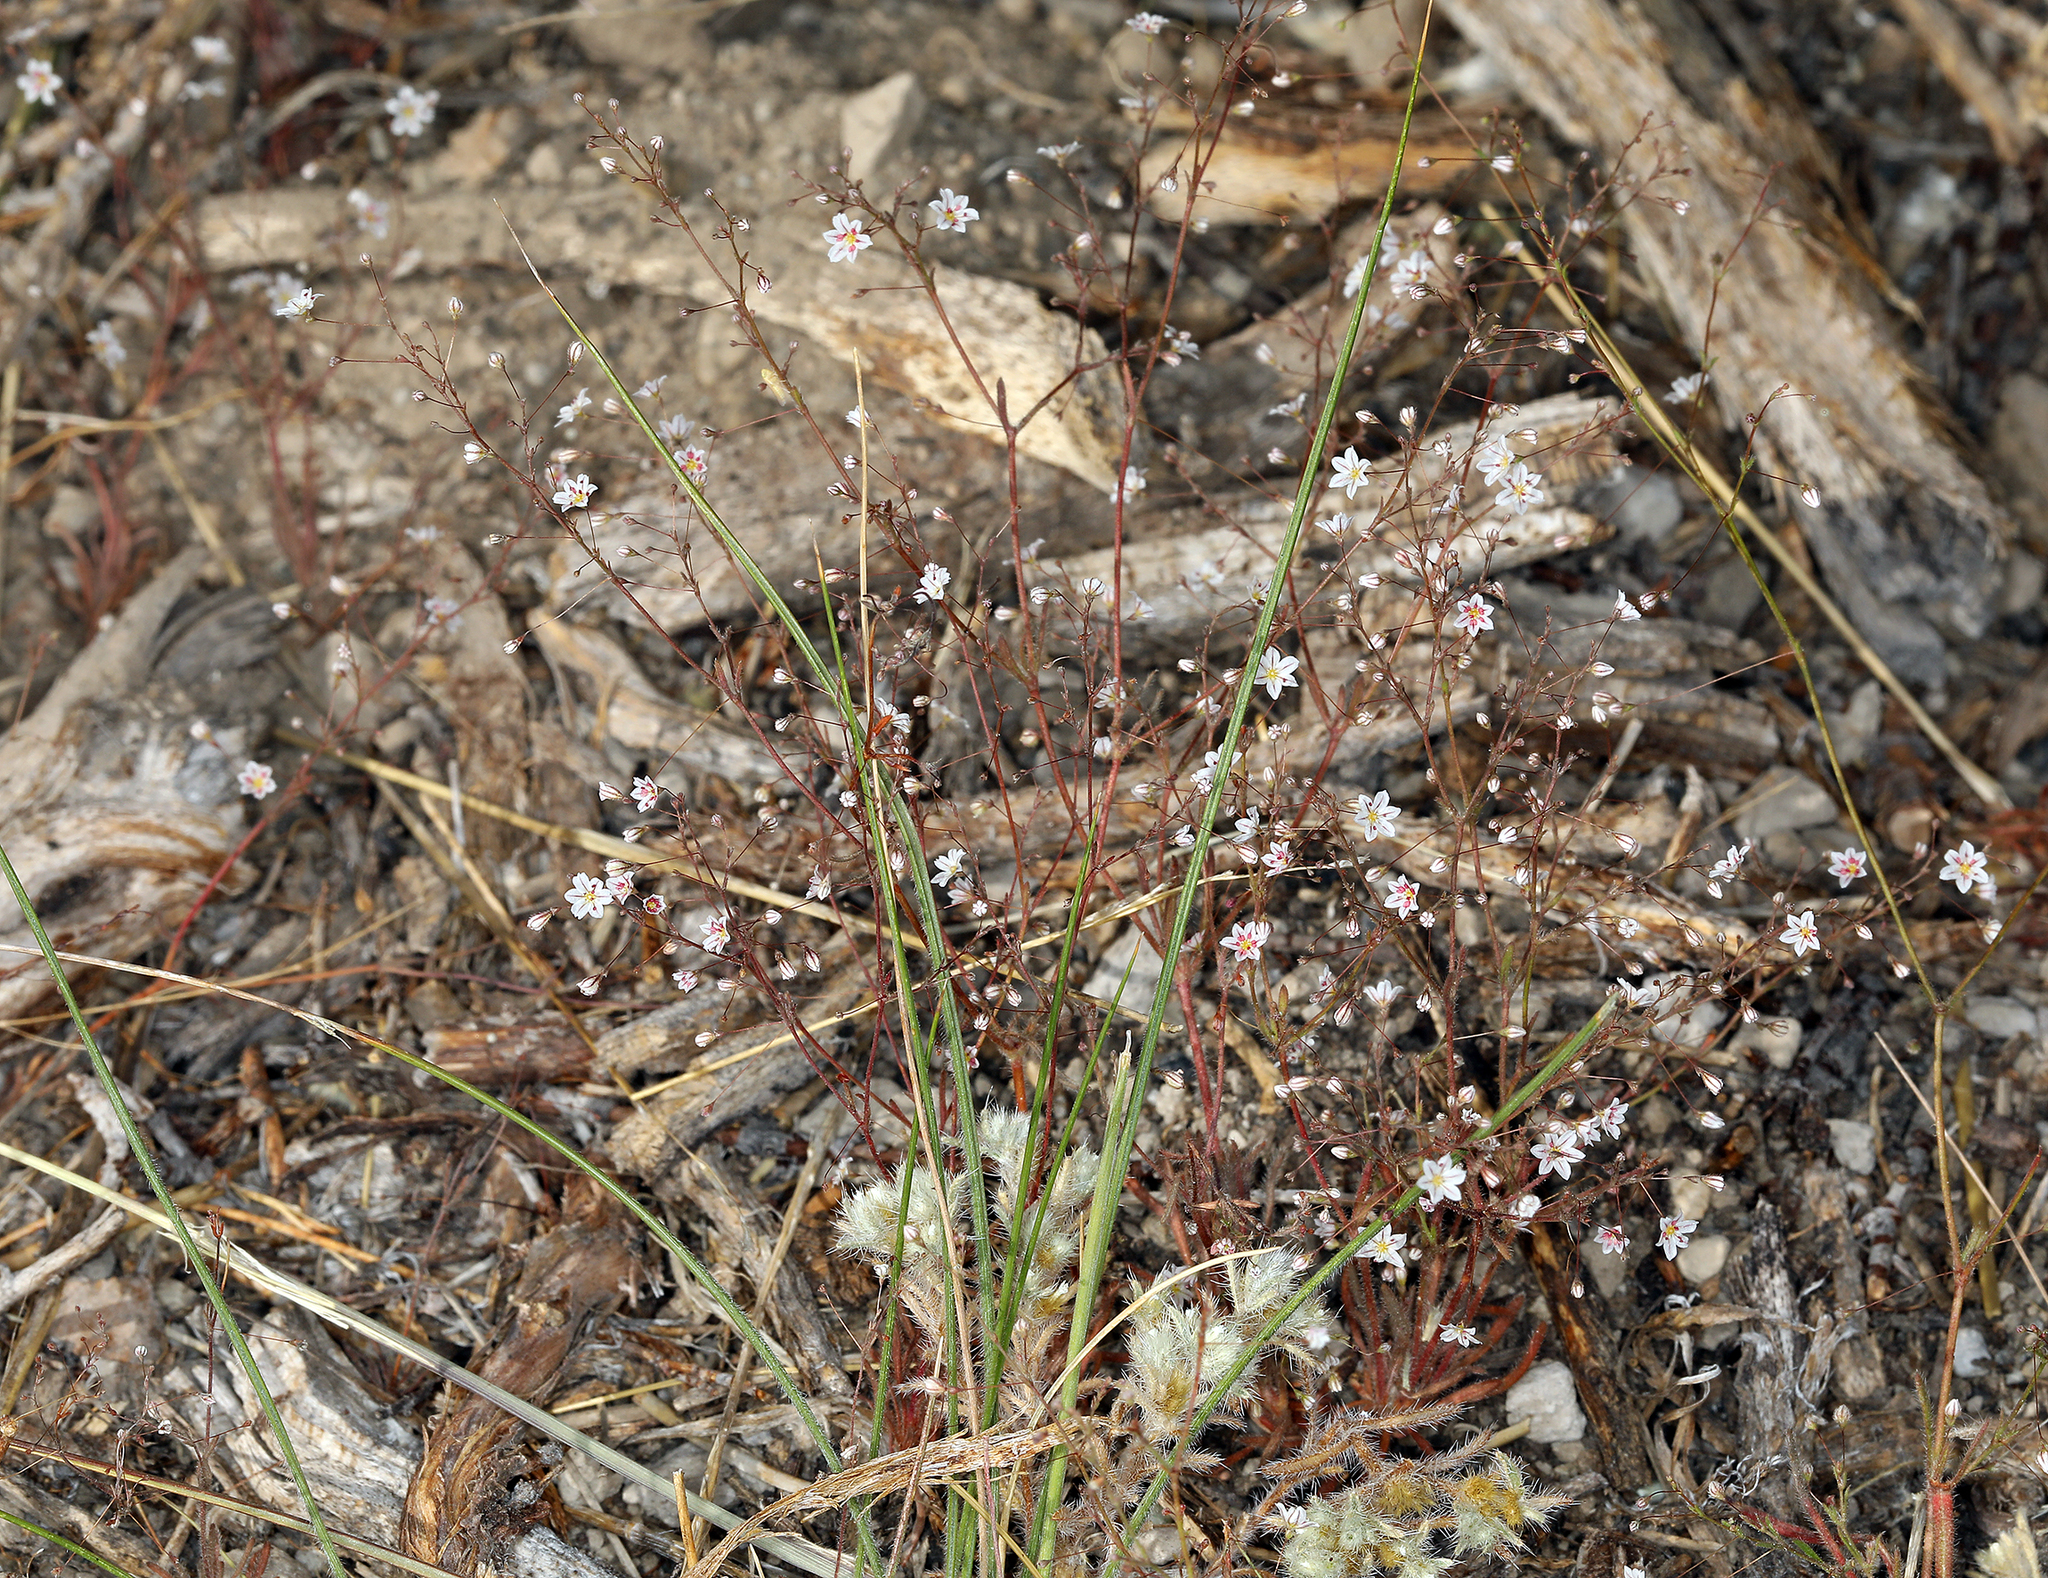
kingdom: Plantae
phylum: Tracheophyta
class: Magnoliopsida
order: Caryophyllales
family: Polygonaceae
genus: Eriogonum
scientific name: Eriogonum spergulinum
